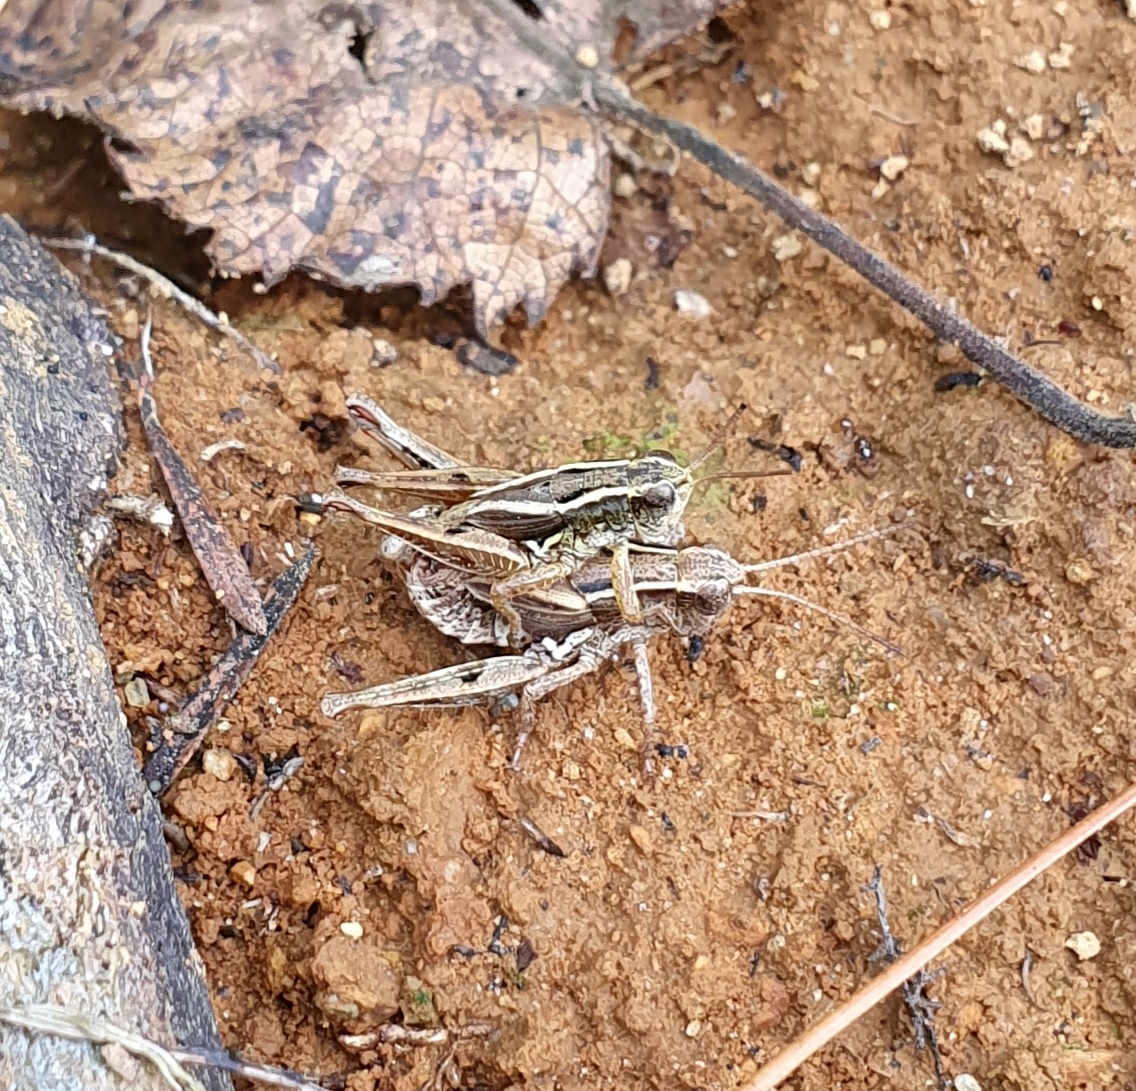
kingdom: Animalia
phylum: Arthropoda
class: Insecta
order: Orthoptera
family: Acrididae
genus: Phaulacridium
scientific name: Phaulacridium marginale
